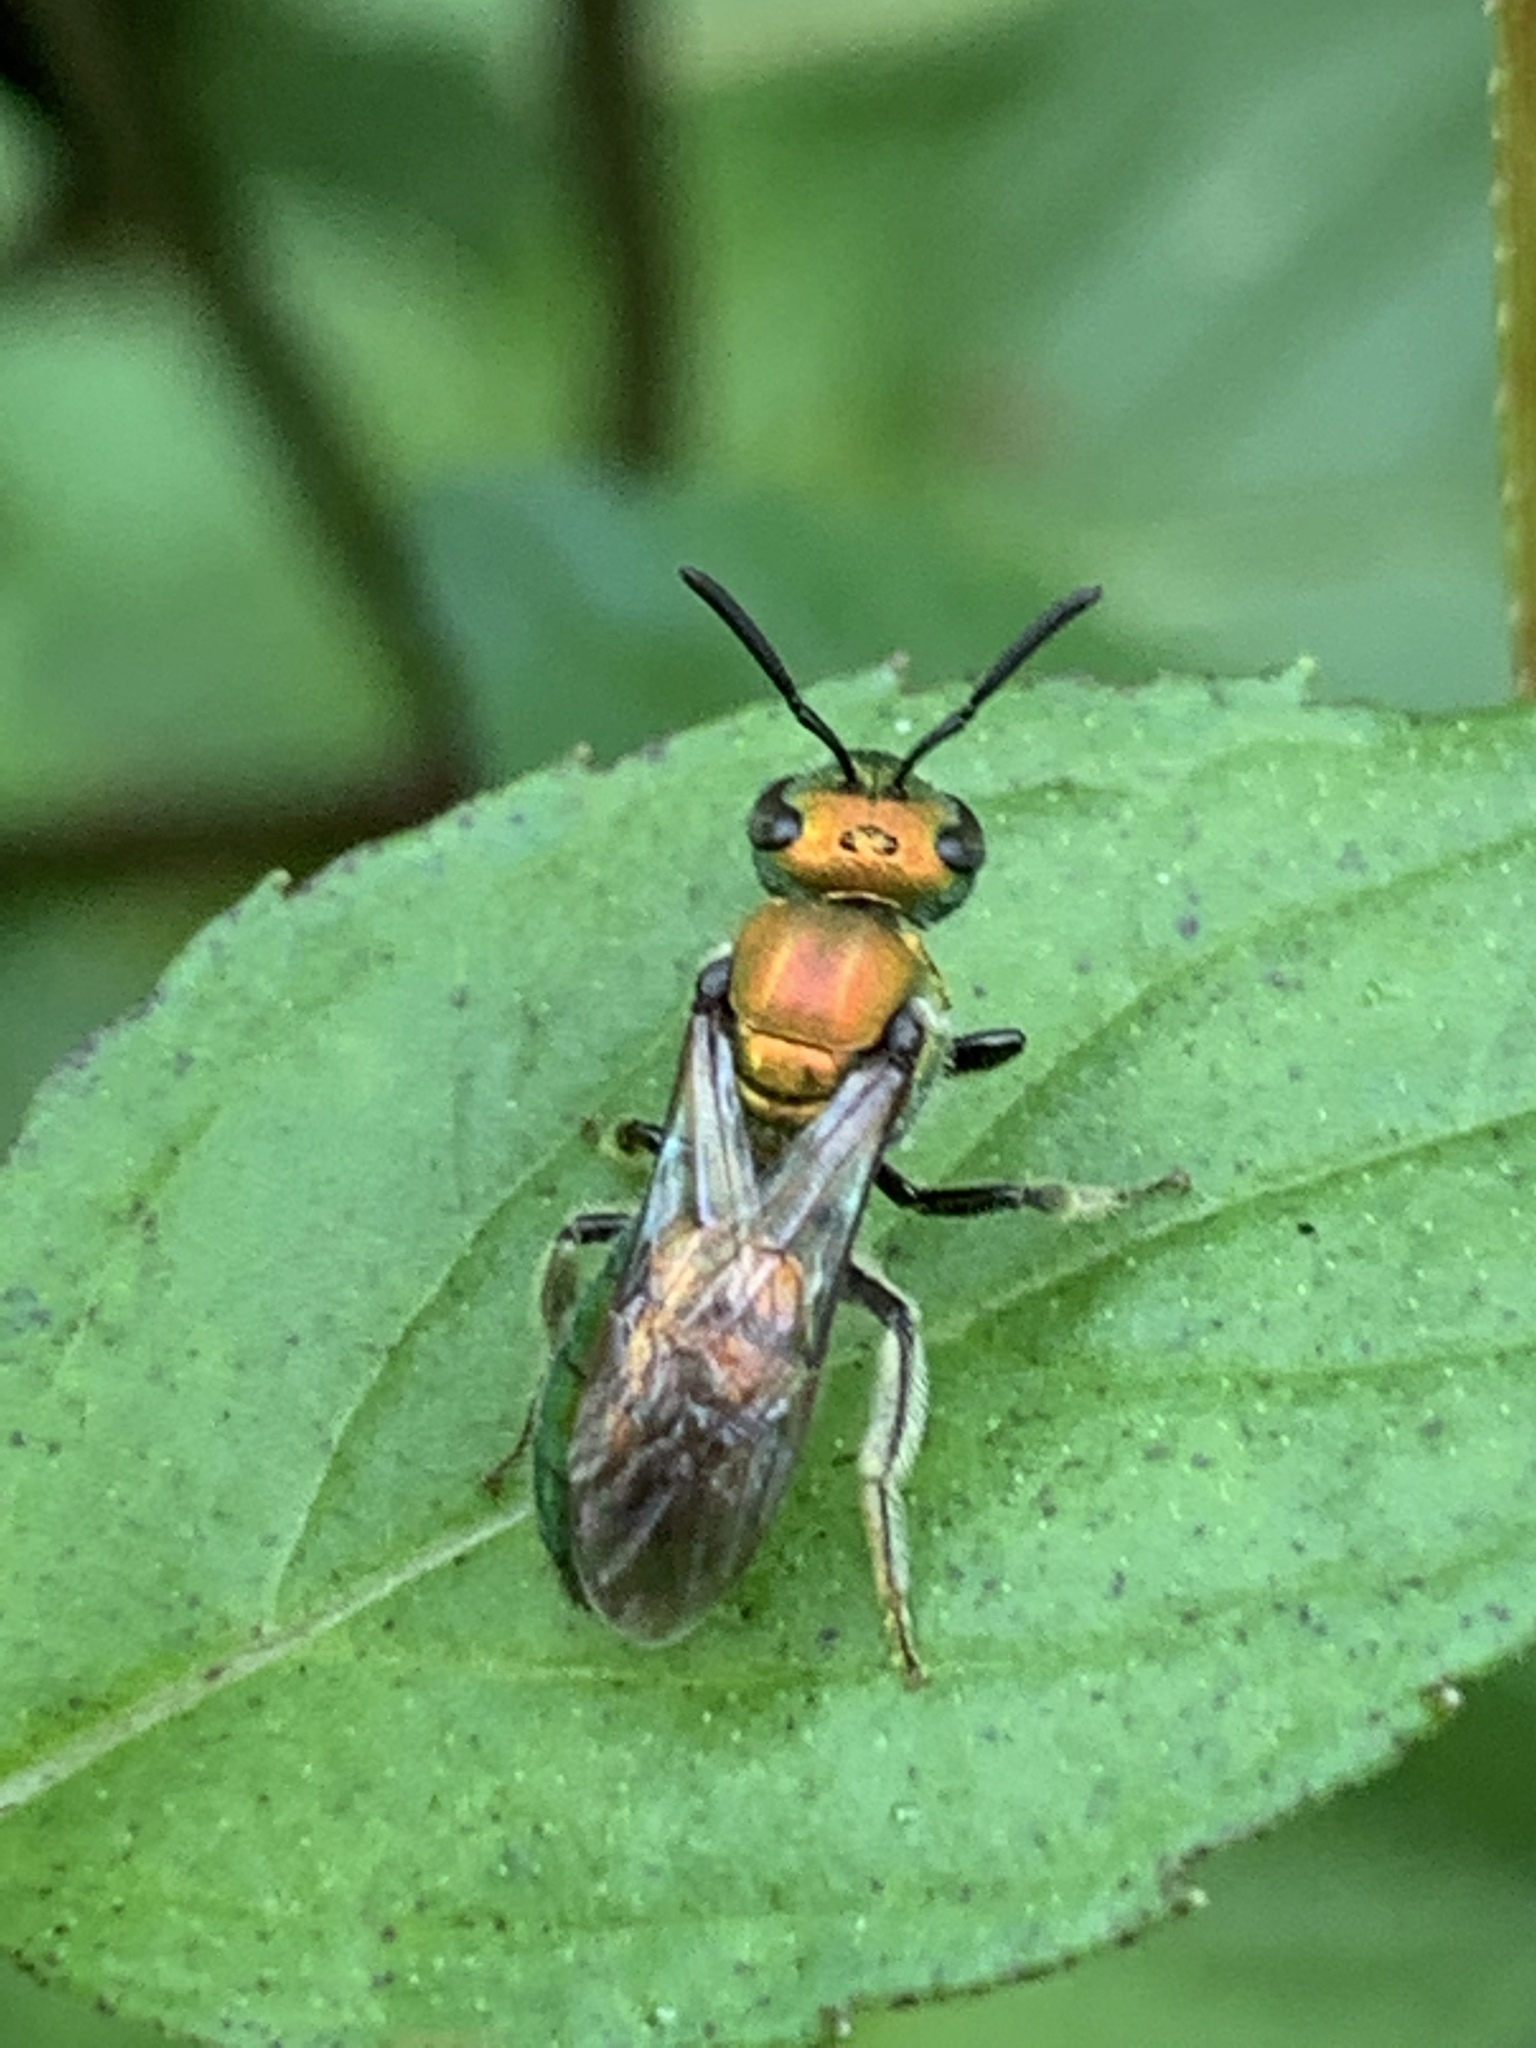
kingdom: Animalia
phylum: Arthropoda
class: Insecta
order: Hymenoptera
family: Halictidae
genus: Augochlora
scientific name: Augochlora pura
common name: Pure green sweat bee
